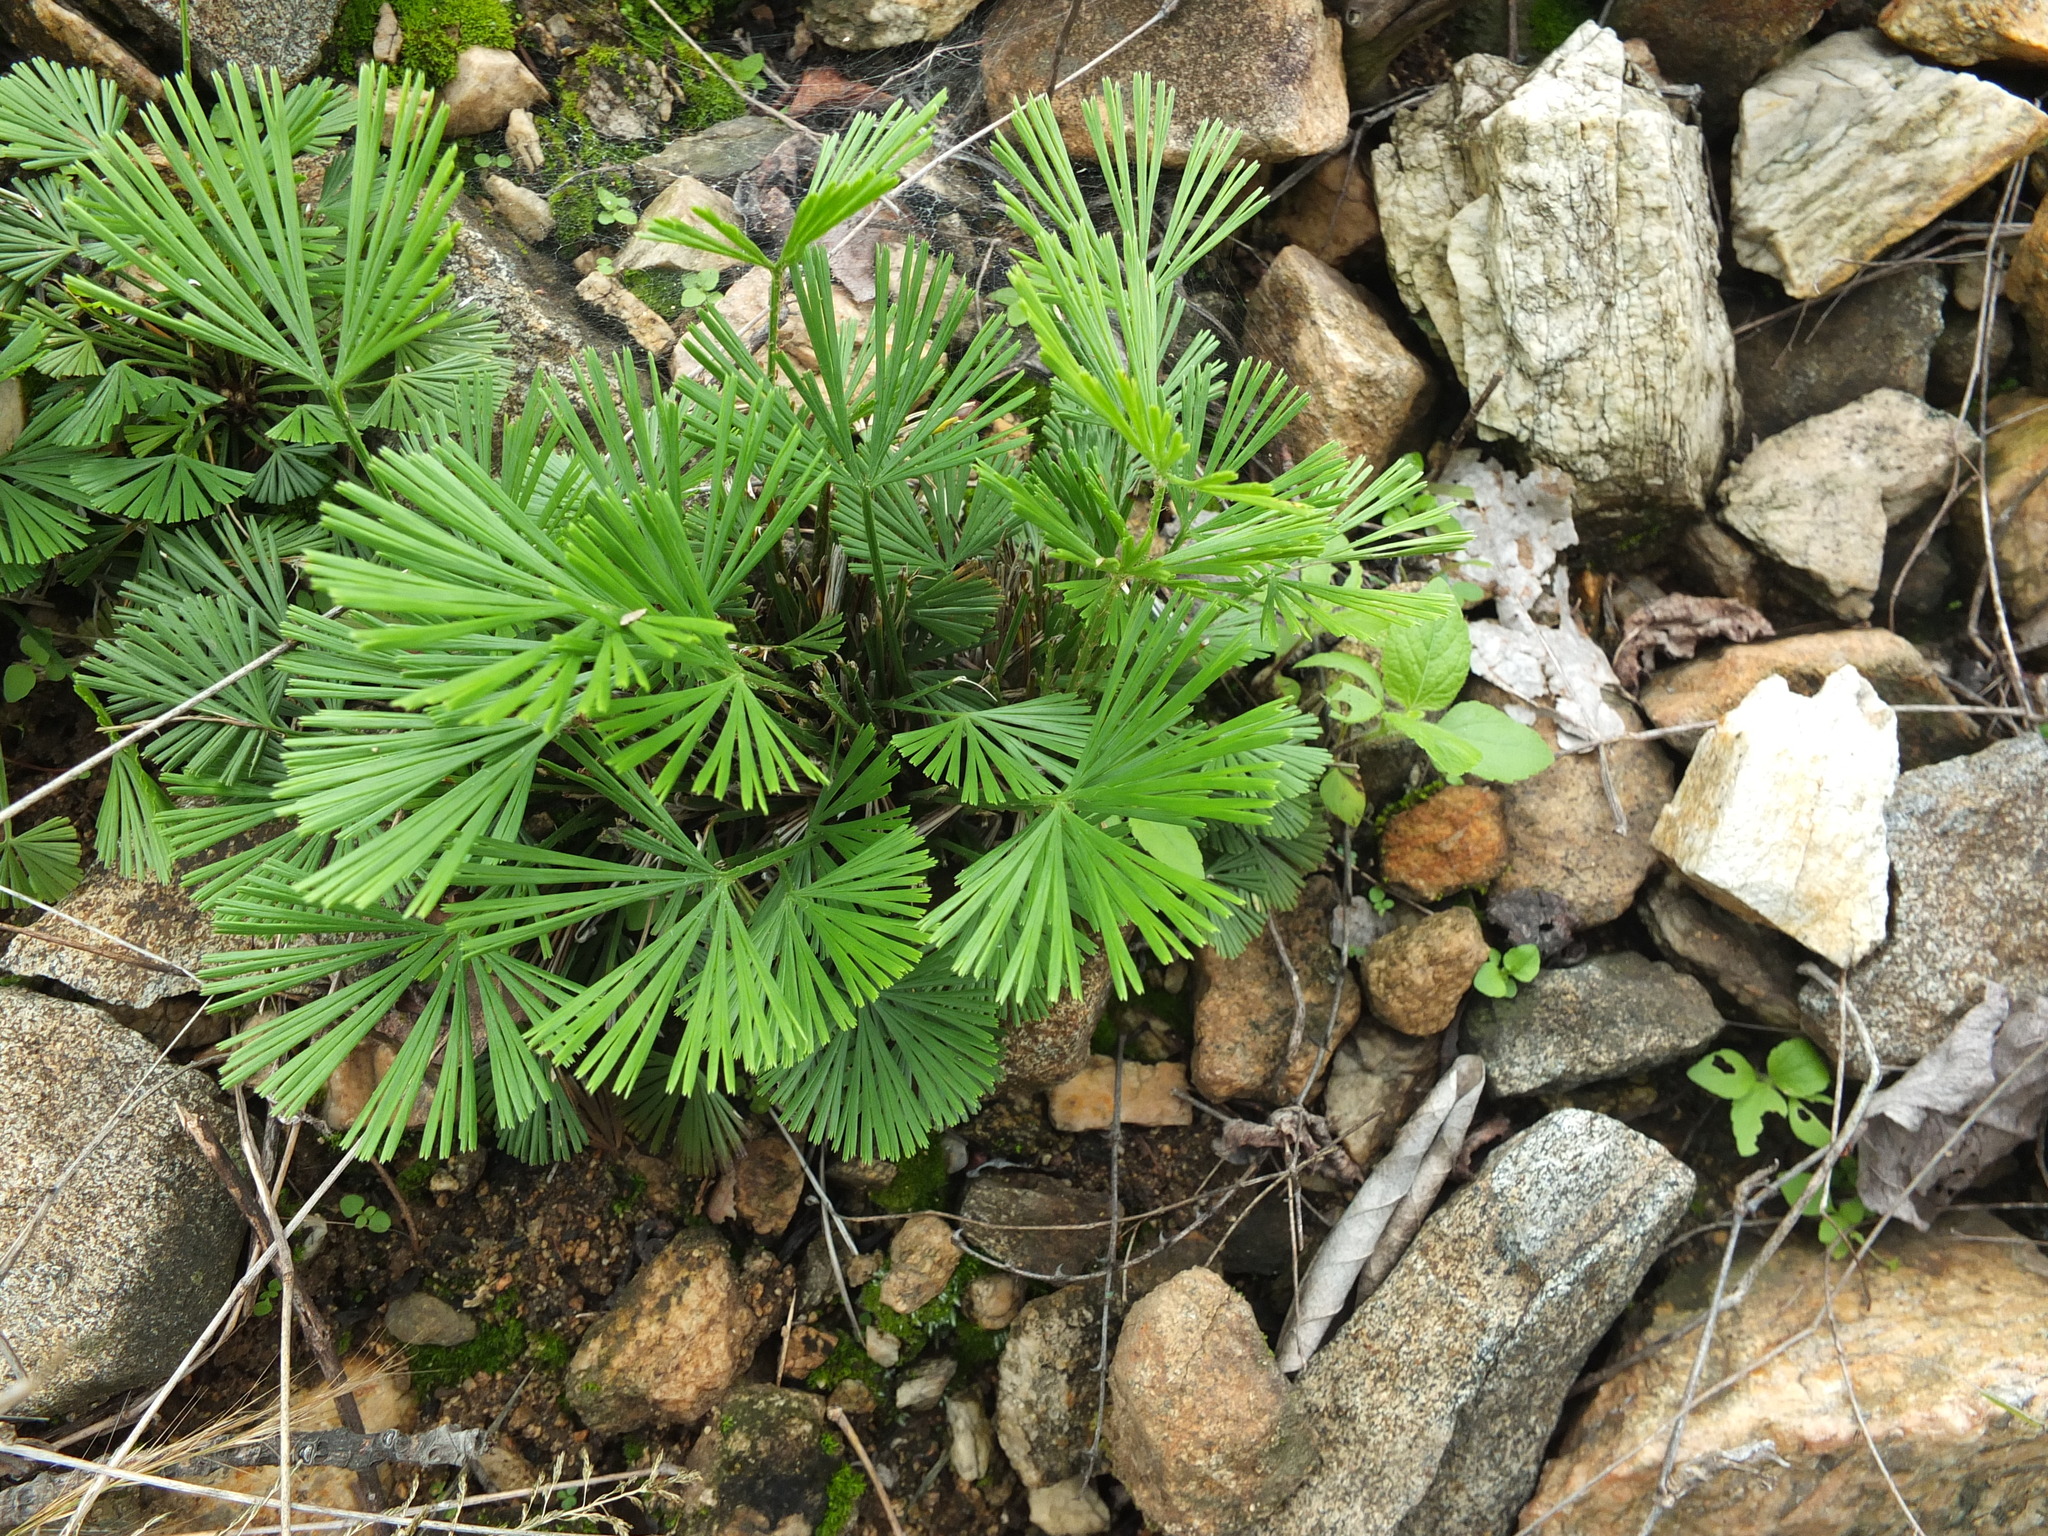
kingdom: Plantae
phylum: Tracheophyta
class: Polypodiopsida
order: Polypodiales
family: Pteridaceae
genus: Actiniopteris
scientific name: Actiniopteris radiata
